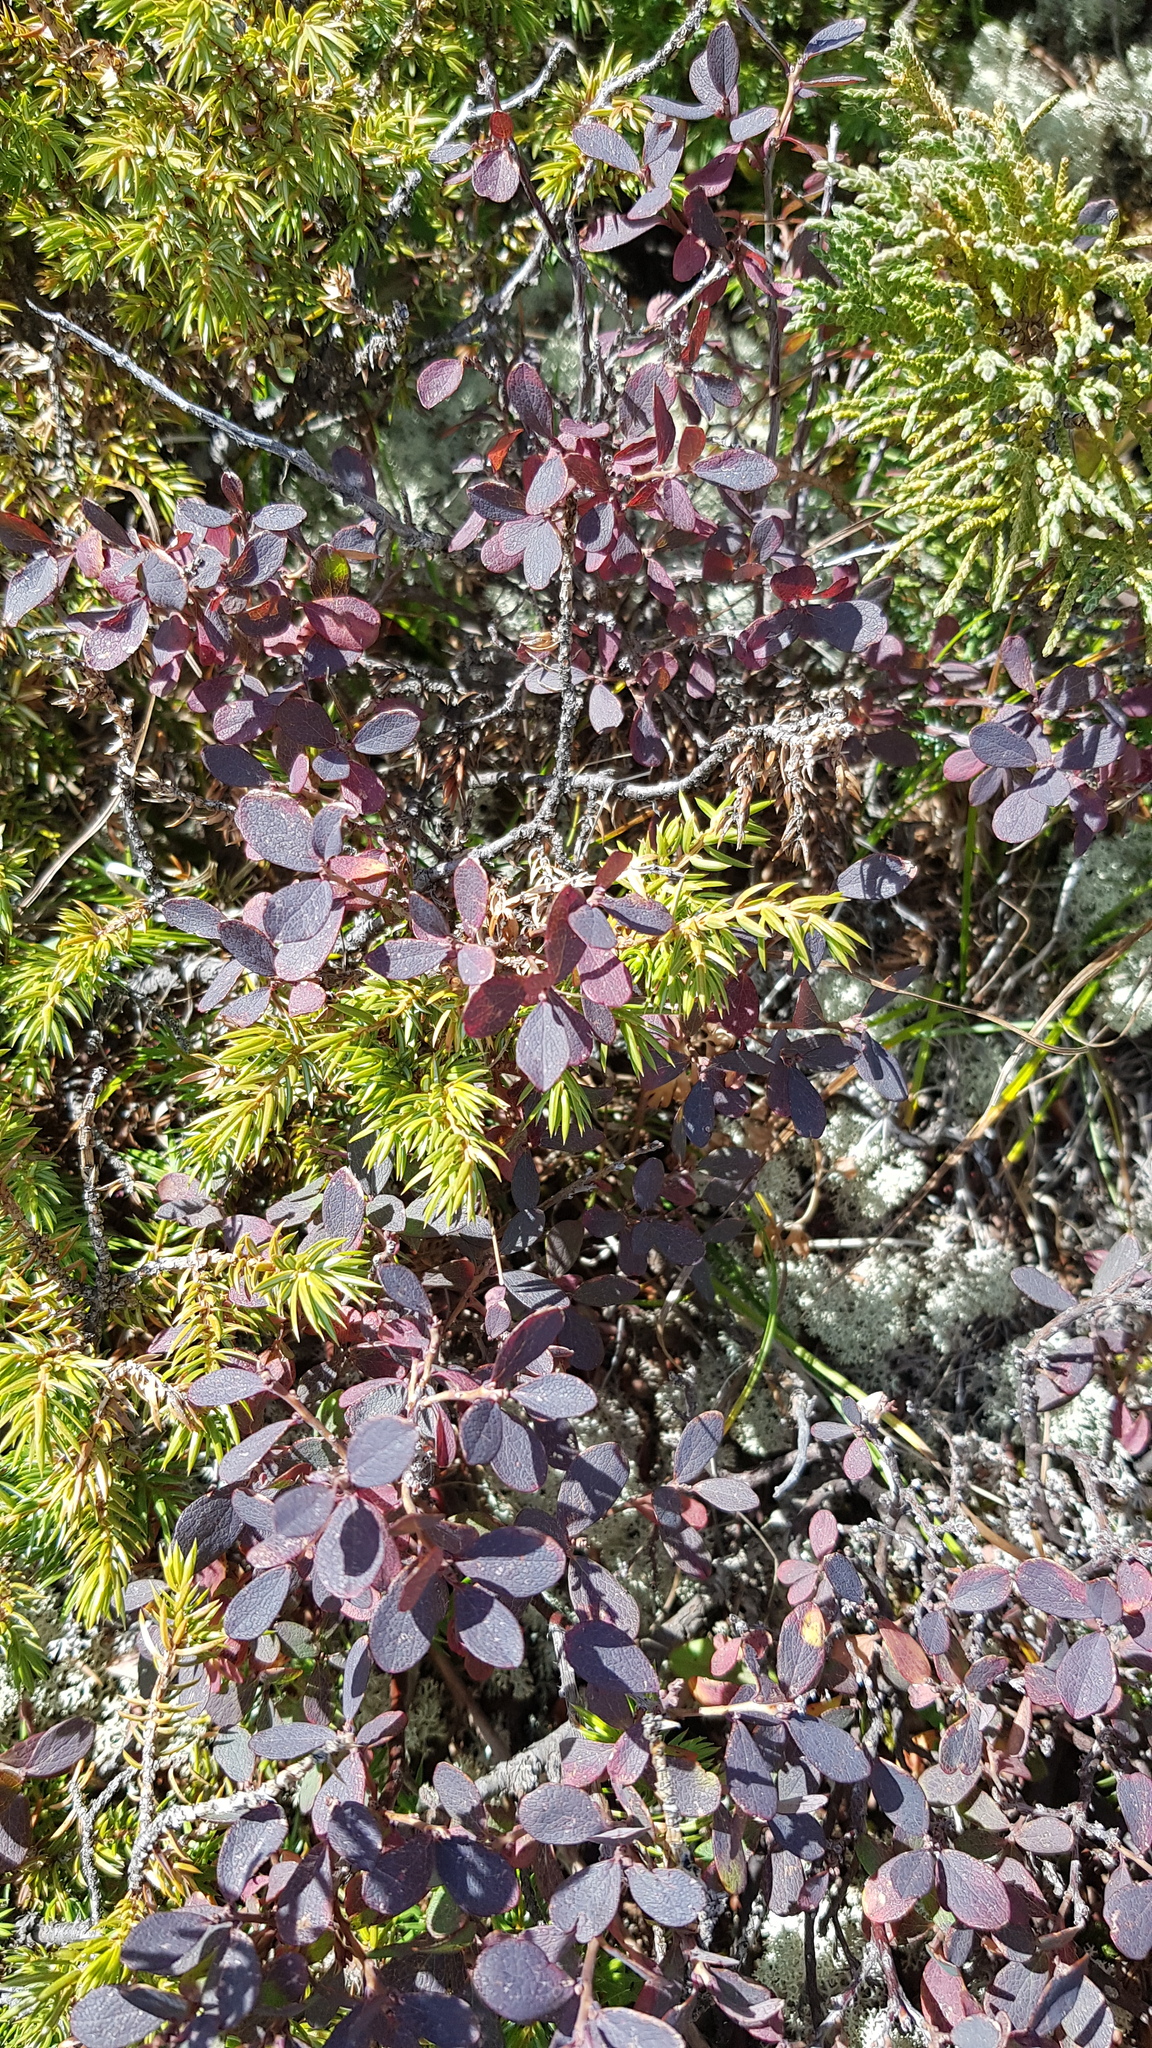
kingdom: Plantae
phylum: Tracheophyta
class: Magnoliopsida
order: Ericales
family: Ericaceae
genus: Vaccinium
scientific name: Vaccinium uliginosum
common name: Bog bilberry
